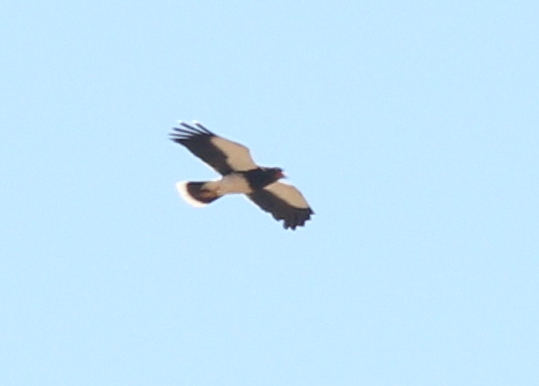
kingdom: Animalia
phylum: Chordata
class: Aves
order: Falconiformes
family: Falconidae
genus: Daptrius
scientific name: Daptrius
